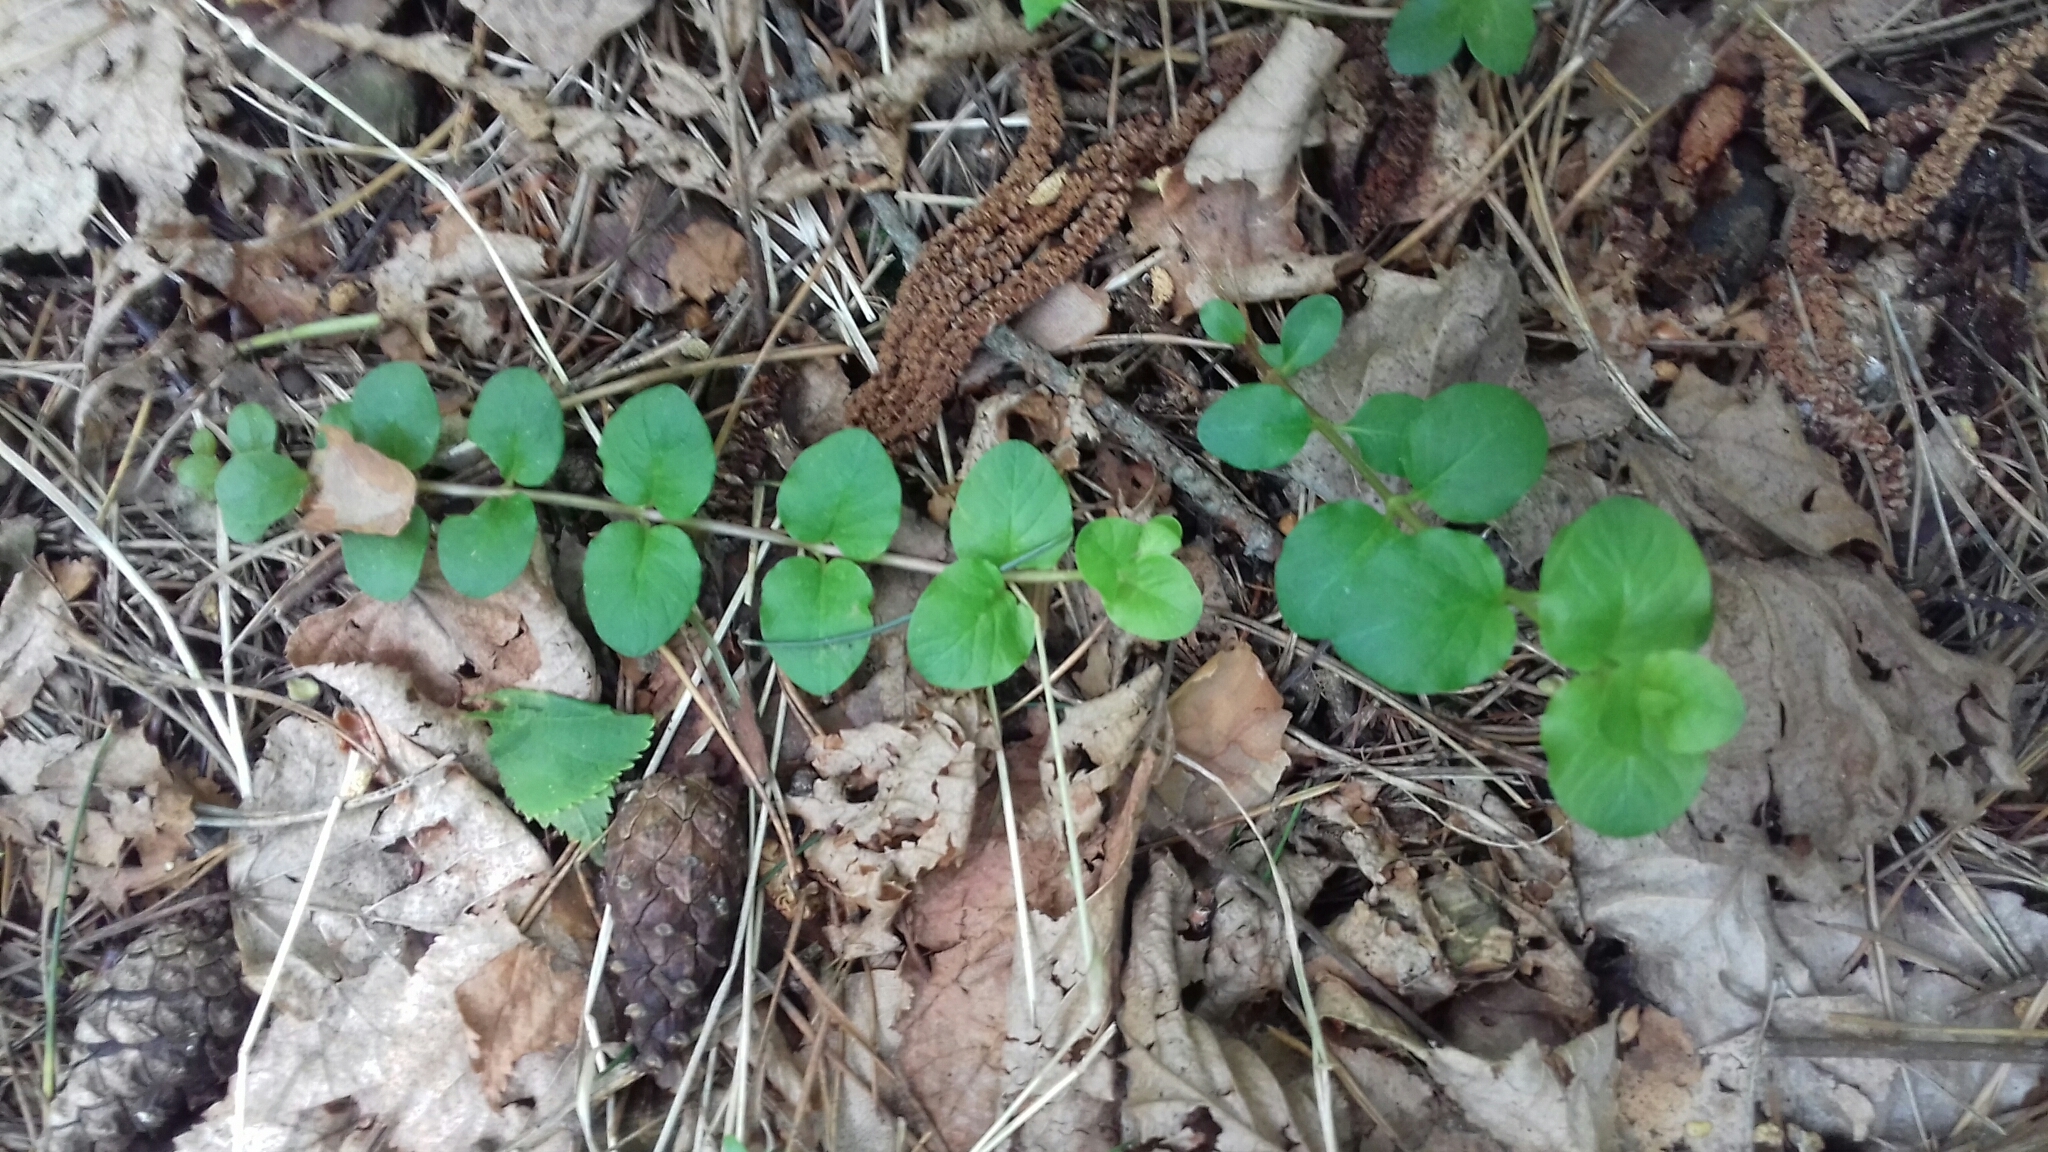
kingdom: Plantae
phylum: Tracheophyta
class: Magnoliopsida
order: Ericales
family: Primulaceae
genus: Lysimachia
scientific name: Lysimachia nummularia
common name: Moneywort
